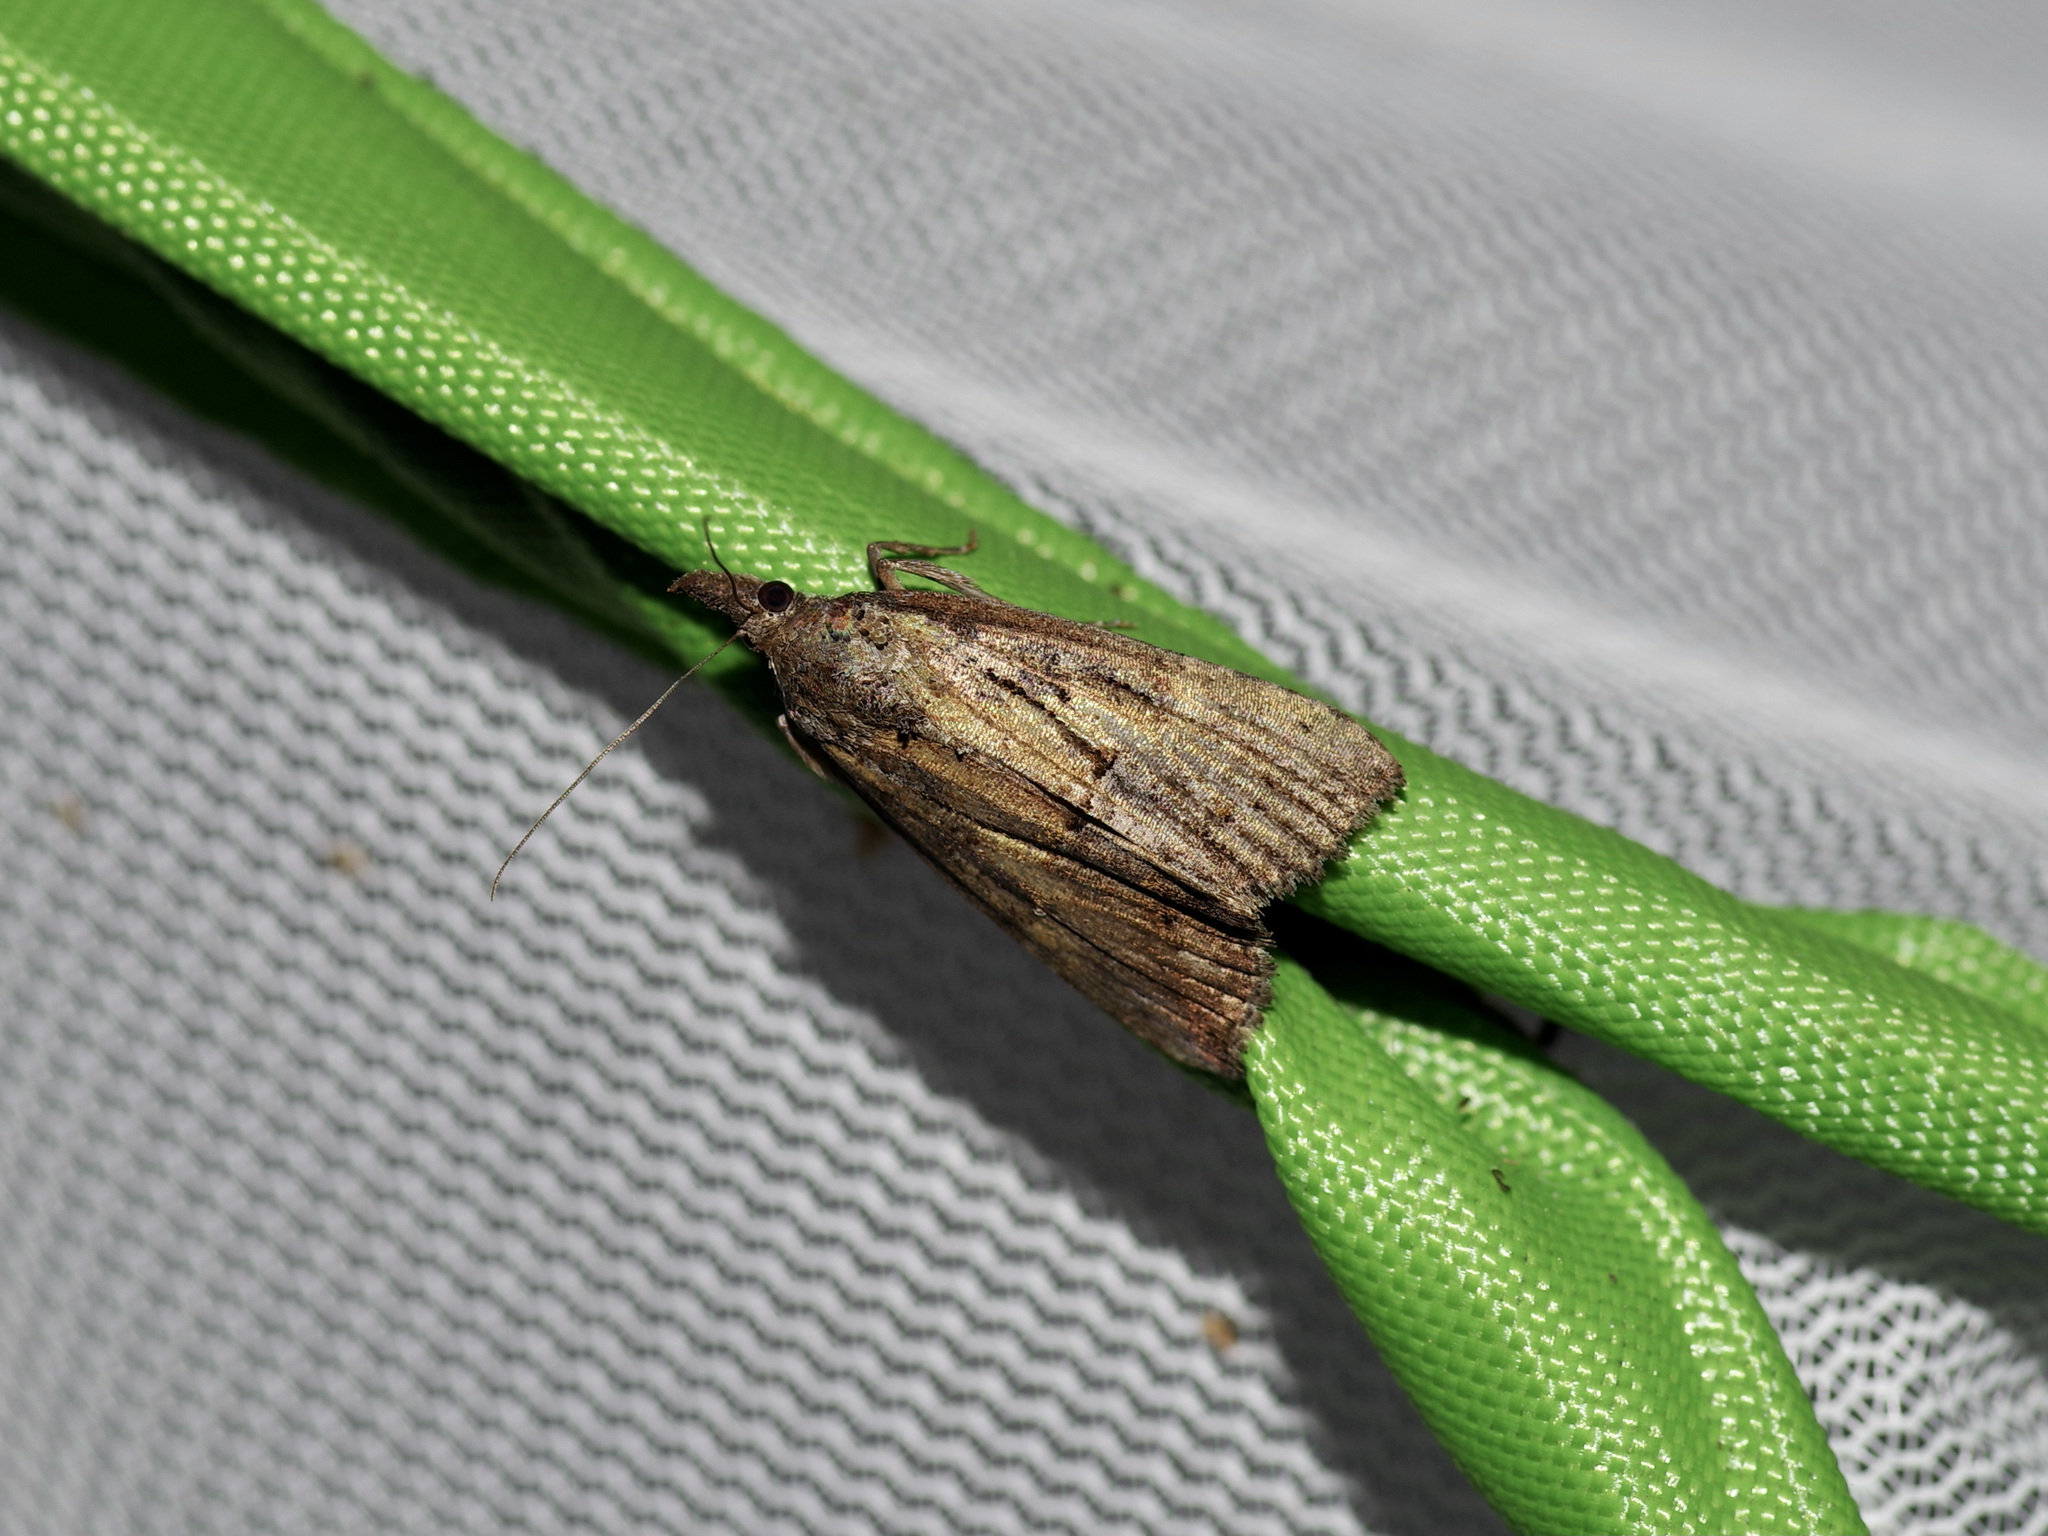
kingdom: Animalia
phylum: Arthropoda
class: Insecta
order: Lepidoptera
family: Erebidae
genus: Hypena
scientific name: Hypena scabra
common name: Green cloverworm
